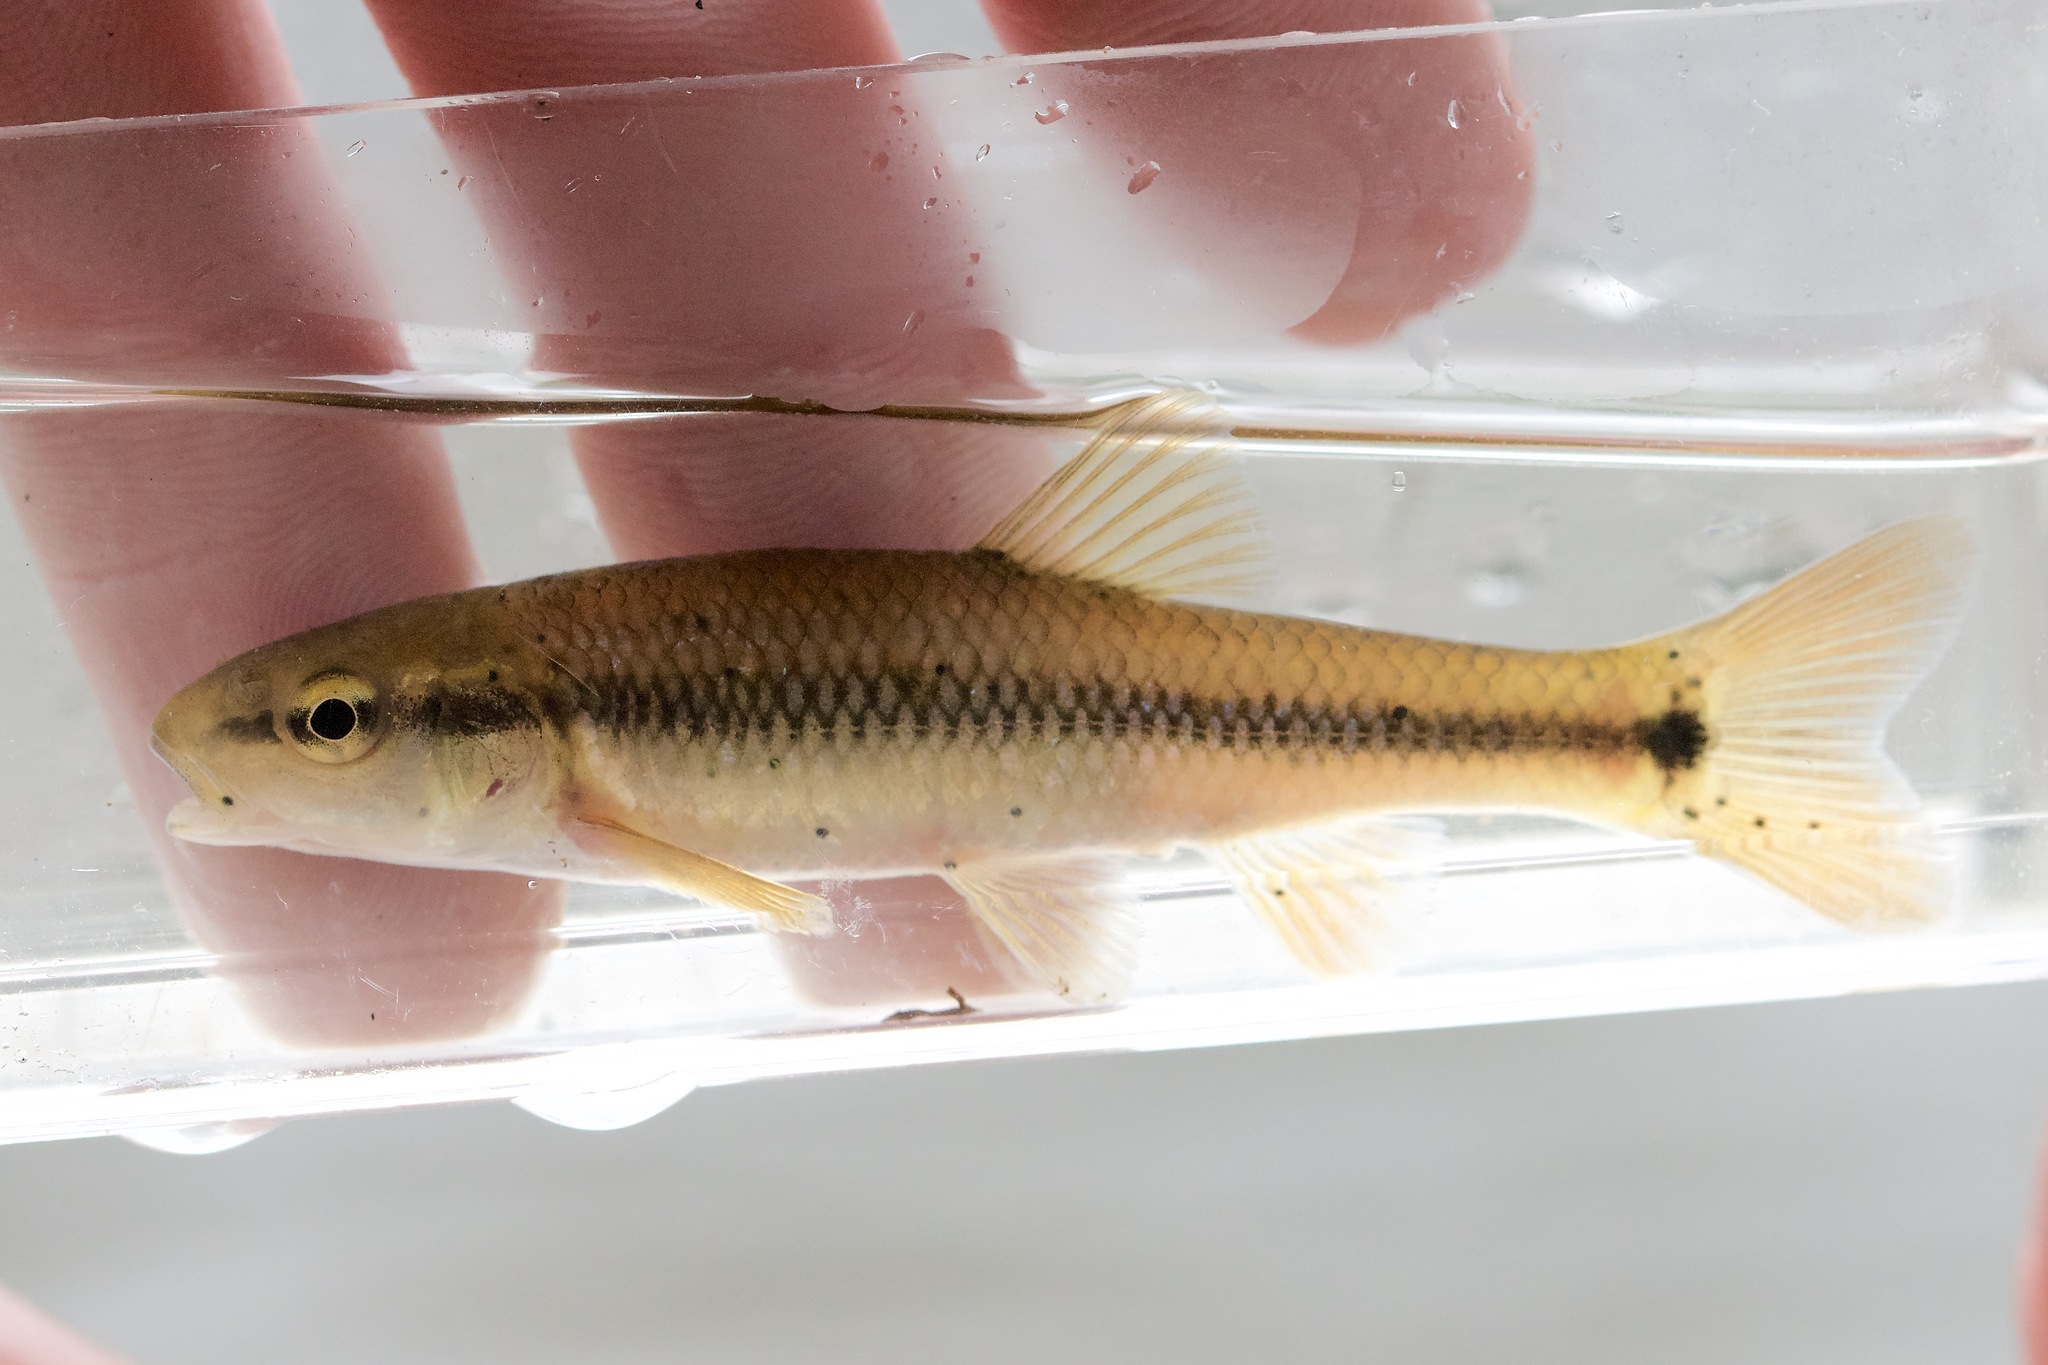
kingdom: Animalia
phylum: Chordata
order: Cypriniformes
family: Cyprinidae
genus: Nocomis
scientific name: Nocomis biguttatus
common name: Hornyhead chub
